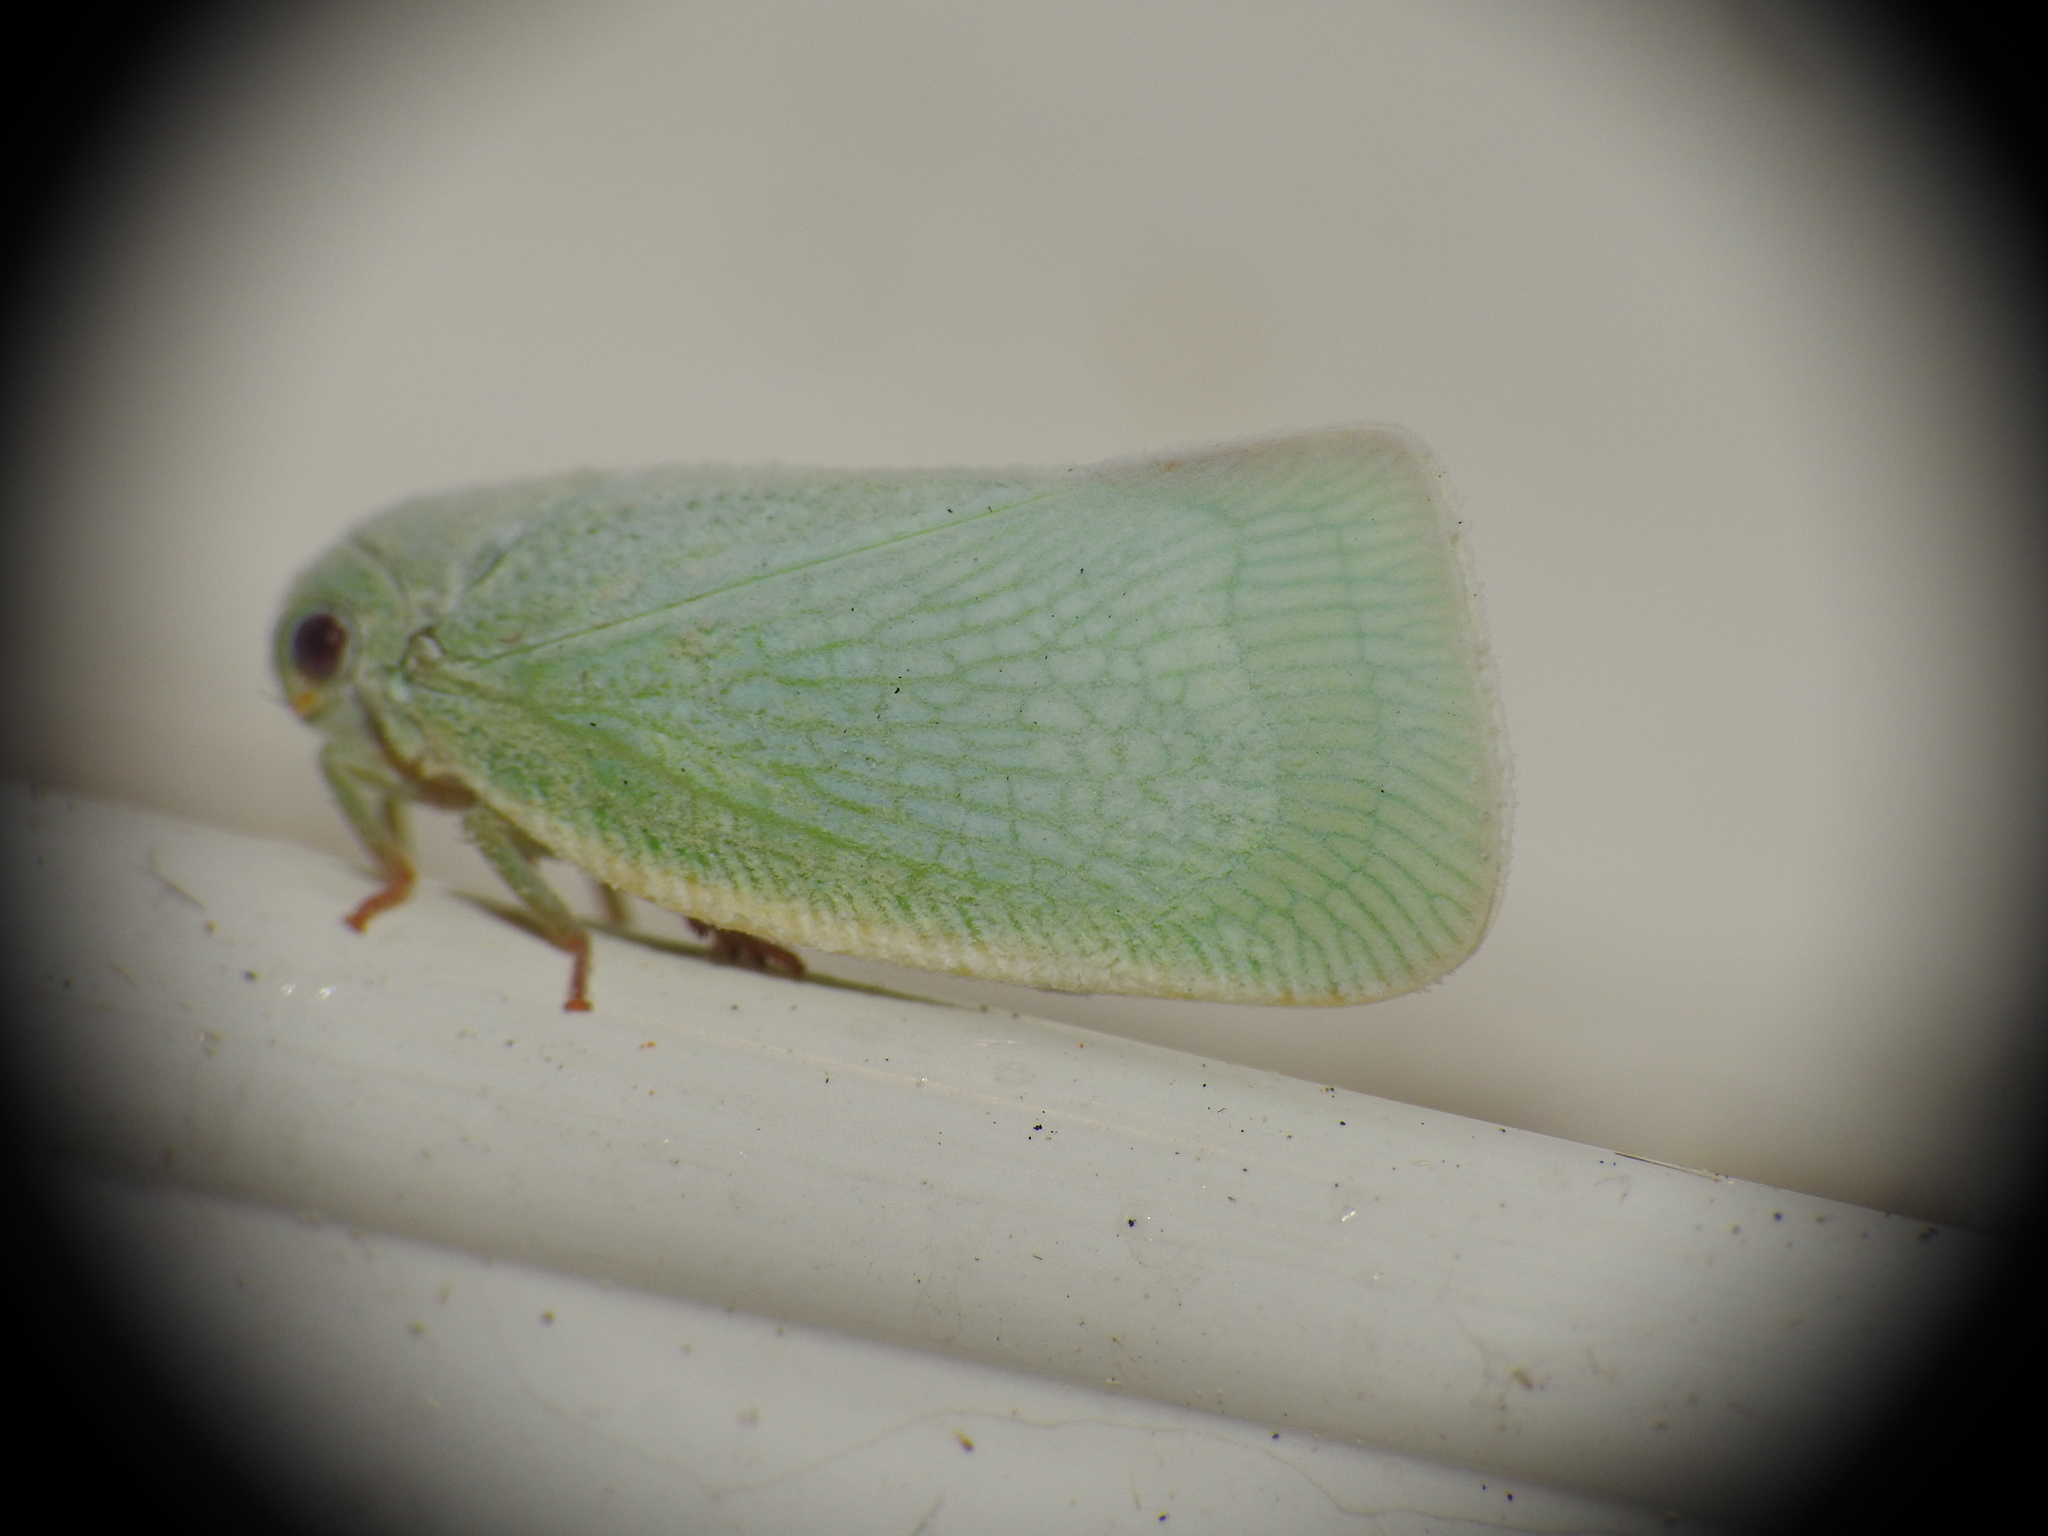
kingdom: Animalia
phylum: Arthropoda
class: Insecta
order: Hemiptera
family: Flatidae
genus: Flatormenis
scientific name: Flatormenis proxima
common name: Northern flatid planthopper
